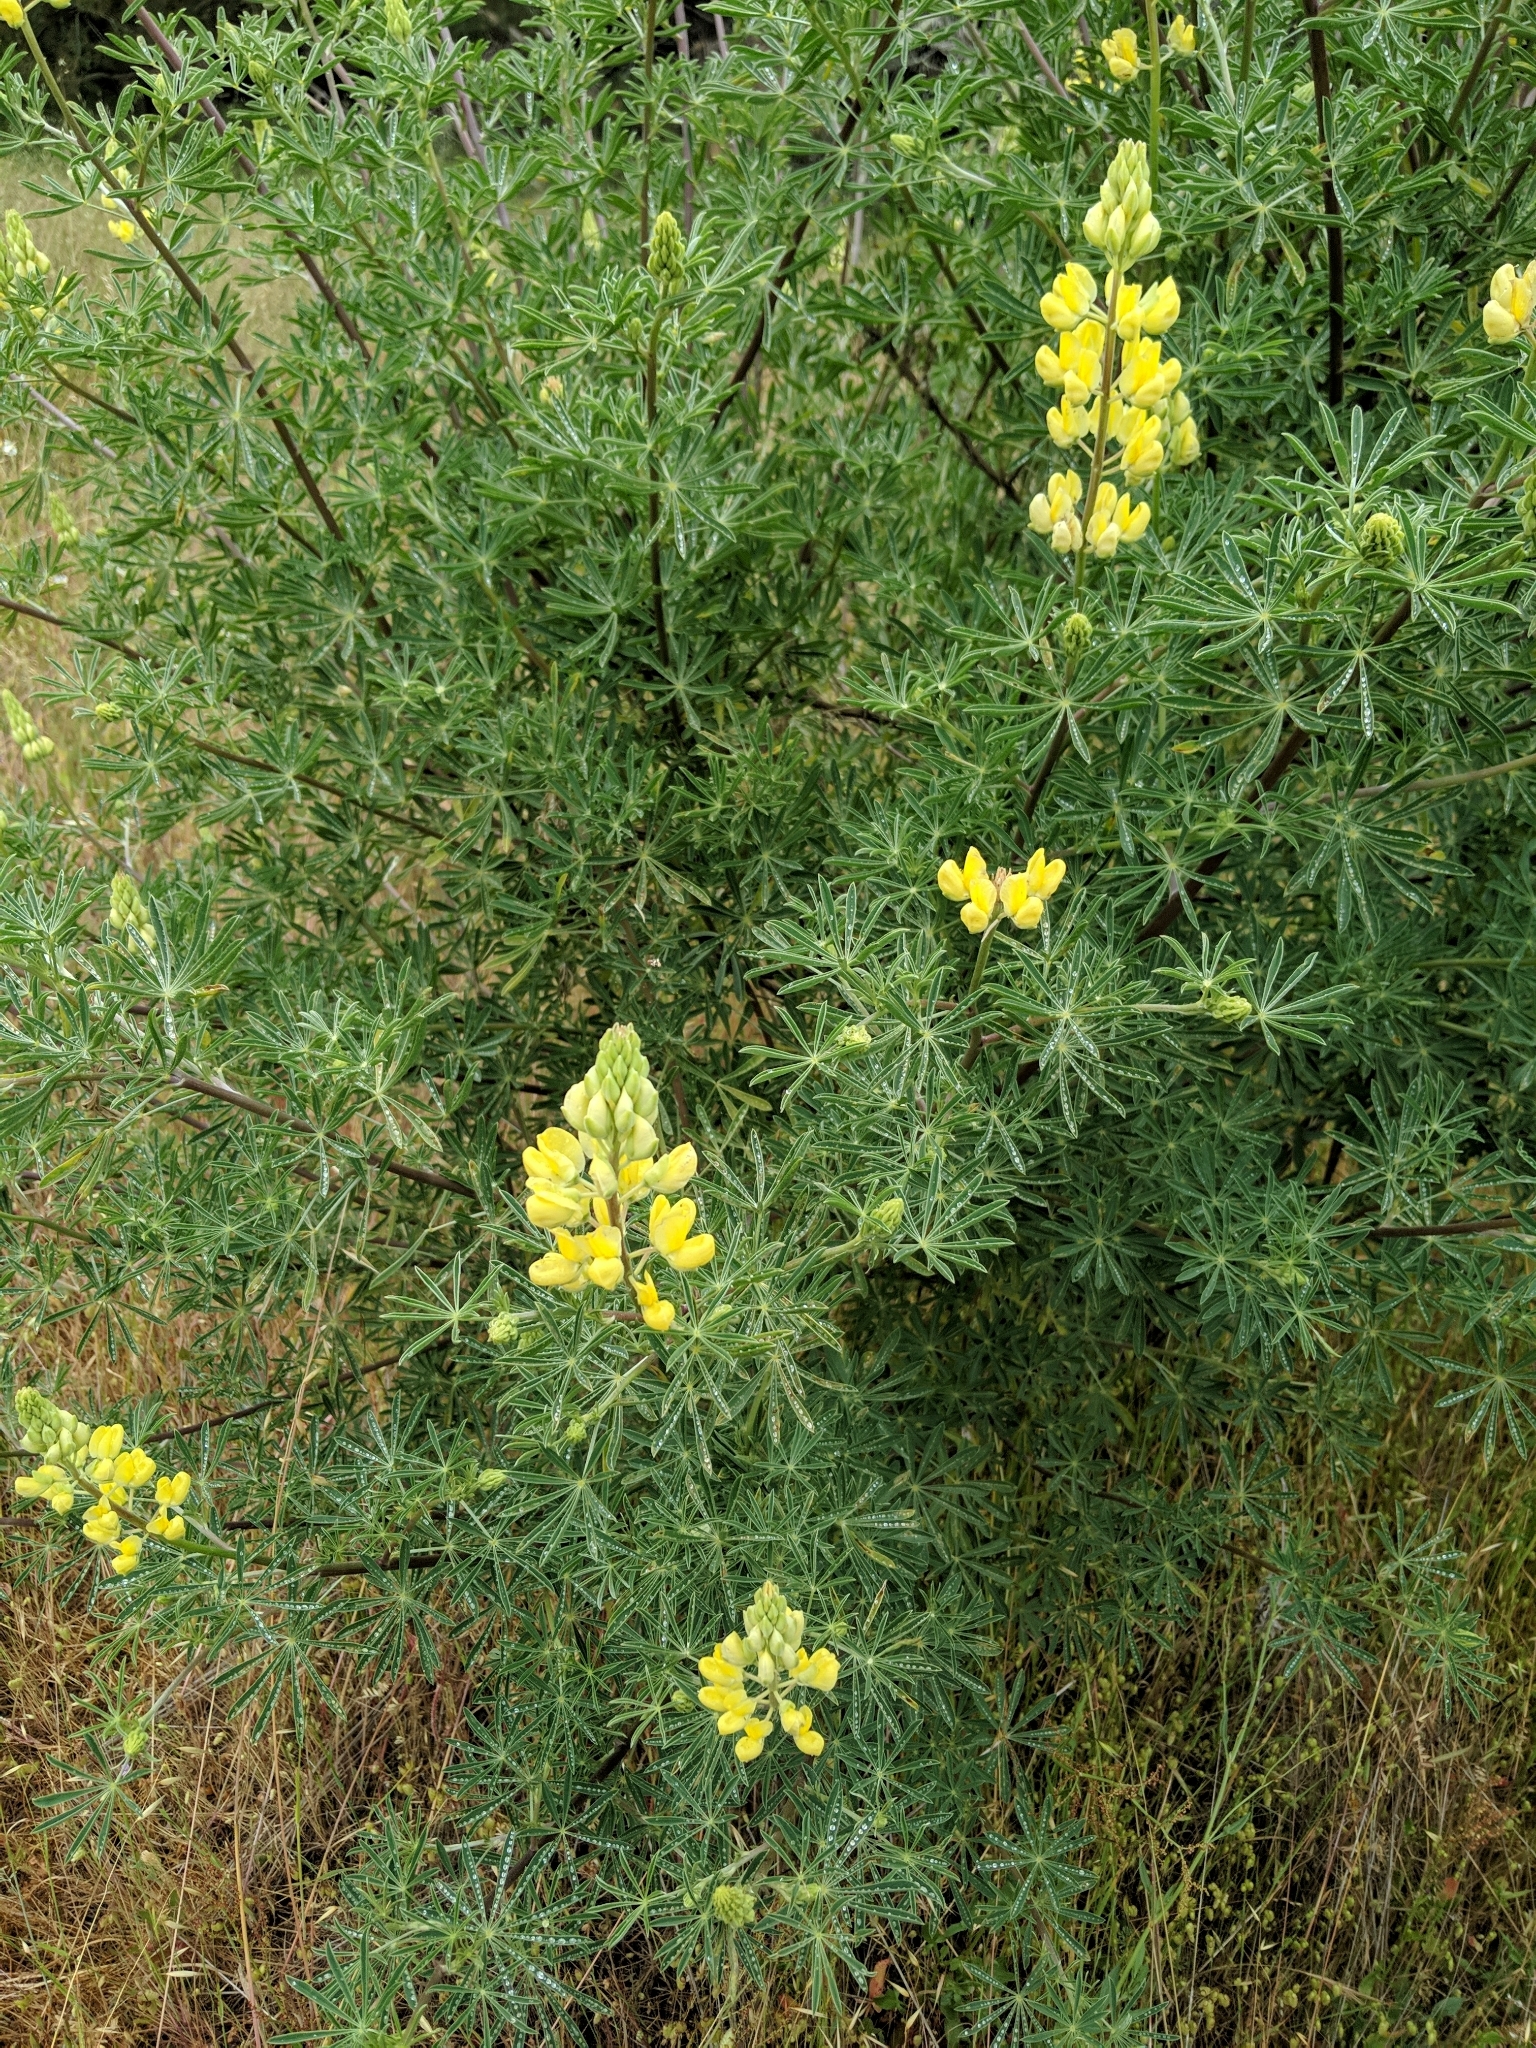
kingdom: Plantae
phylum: Tracheophyta
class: Magnoliopsida
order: Fabales
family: Fabaceae
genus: Lupinus
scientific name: Lupinus arboreus
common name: Yellow bush lupine
